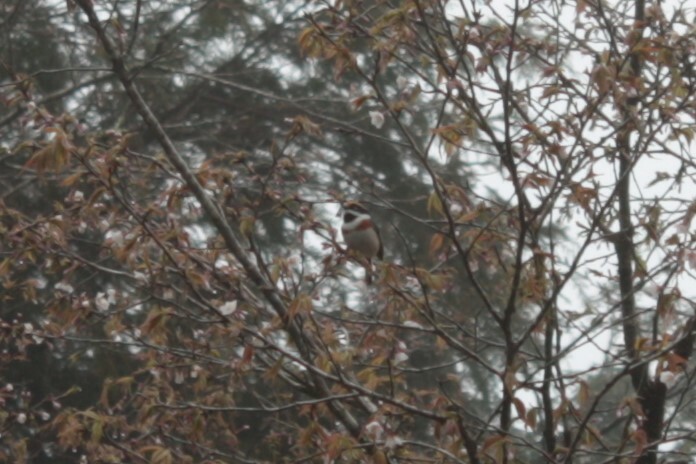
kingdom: Animalia
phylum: Chordata
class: Aves
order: Passeriformes
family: Aegithalidae
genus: Aegithalos
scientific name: Aegithalos concinnus
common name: Black-throated bushtit
